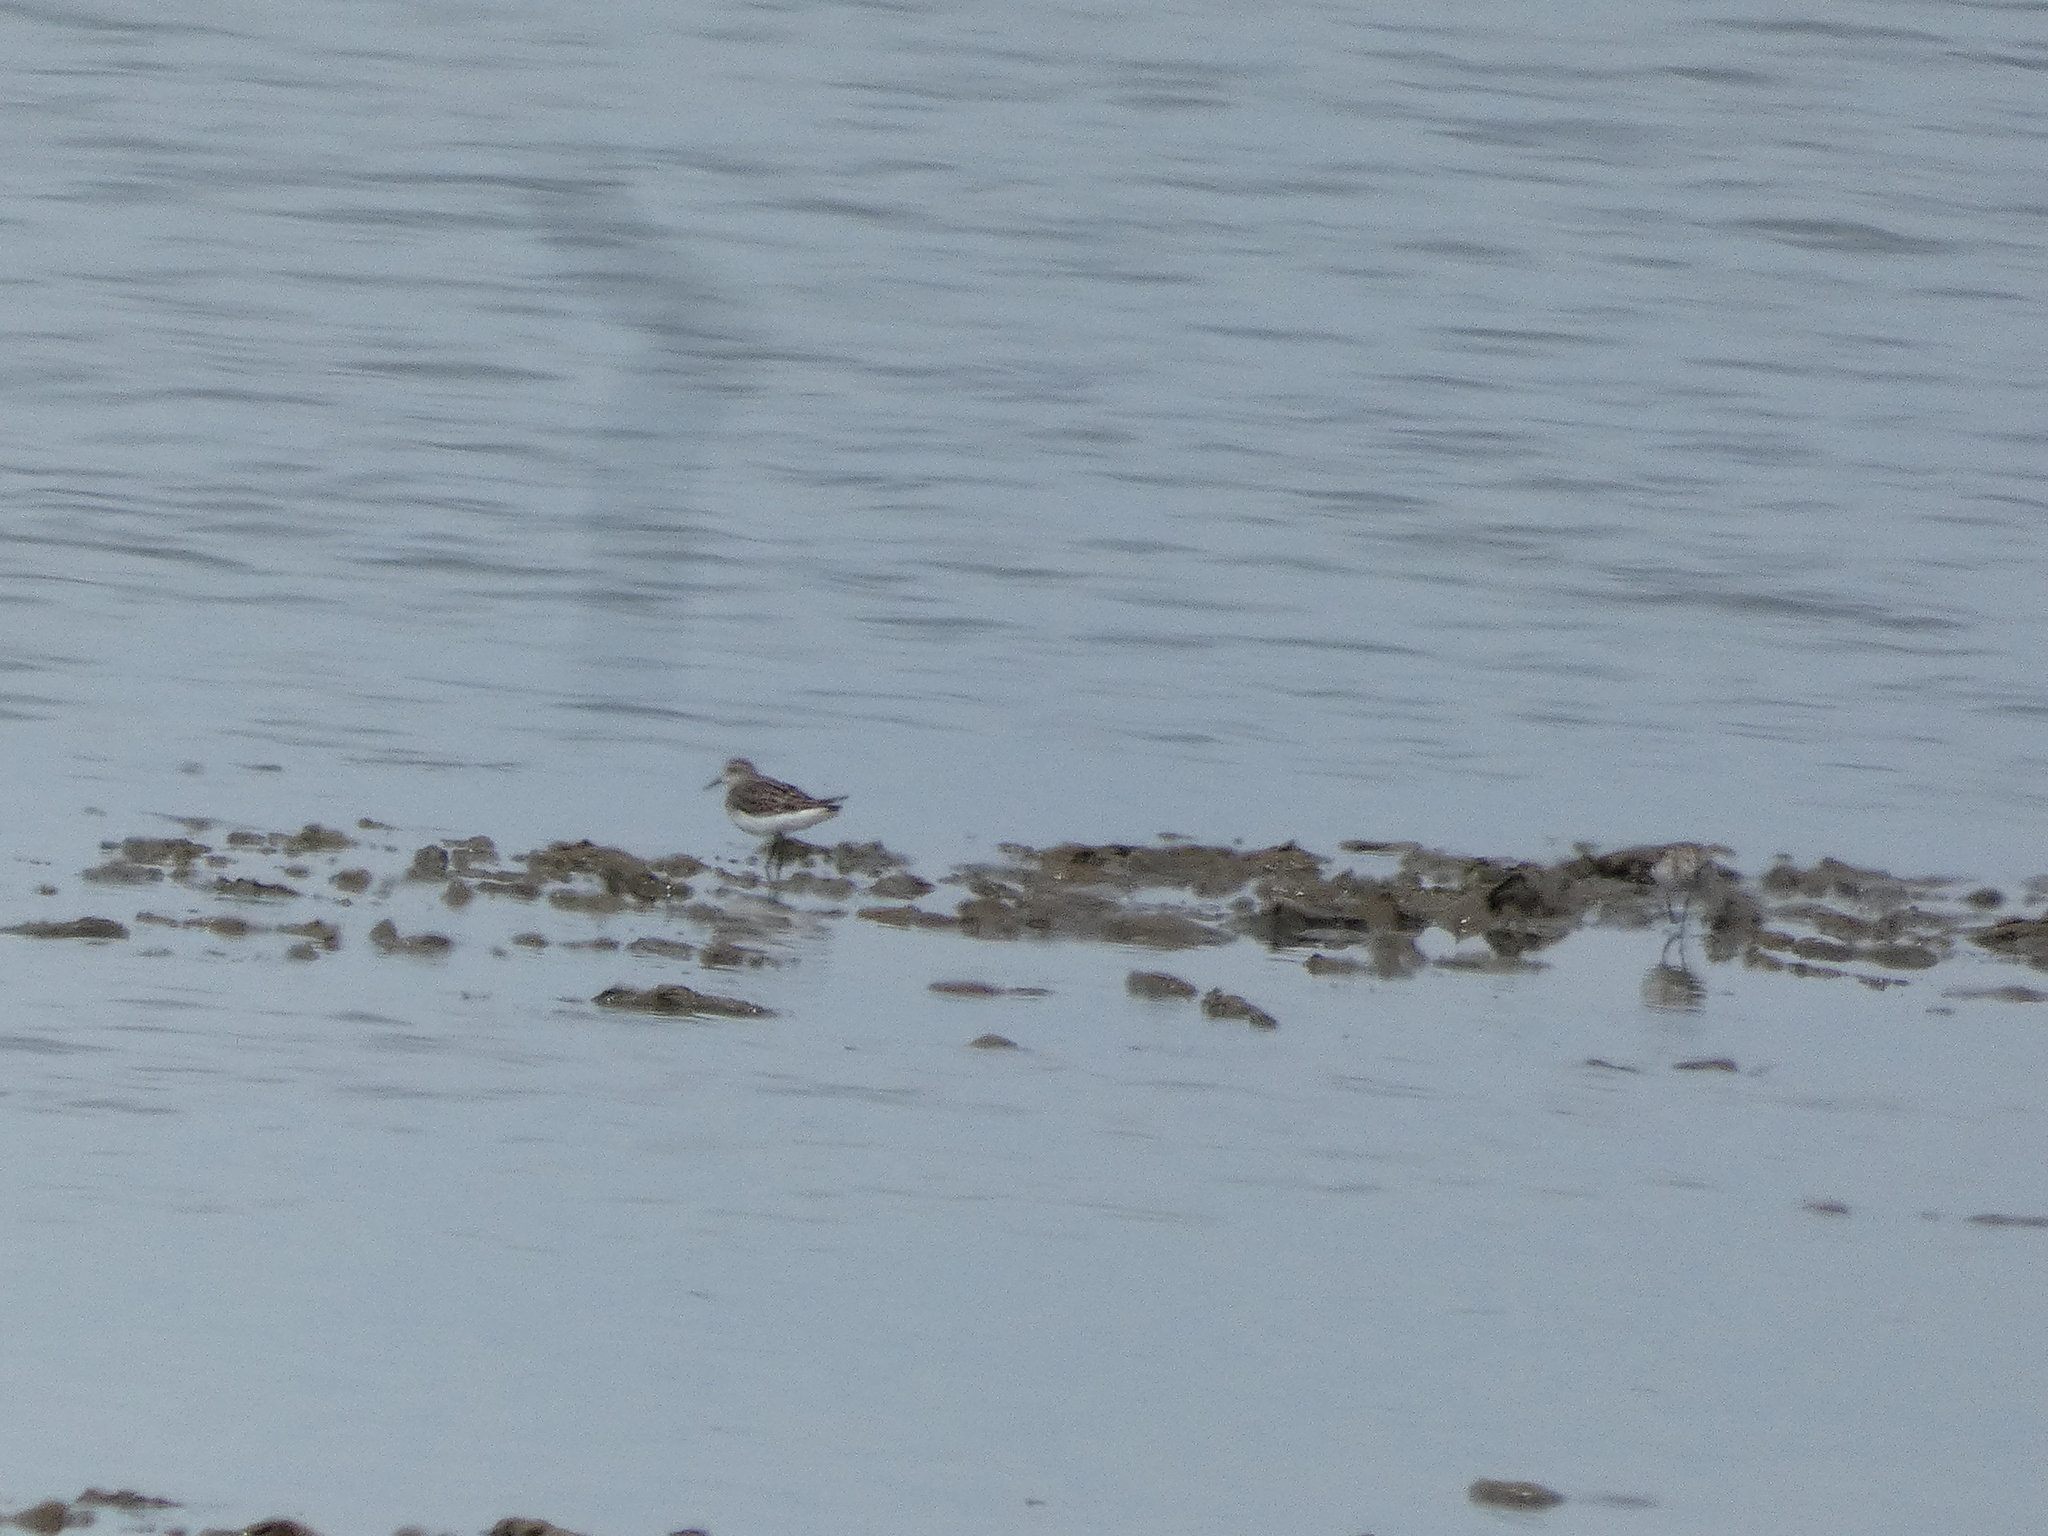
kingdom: Animalia
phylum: Chordata
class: Aves
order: Charadriiformes
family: Scolopacidae
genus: Calidris
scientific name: Calidris minuta
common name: Little stint
